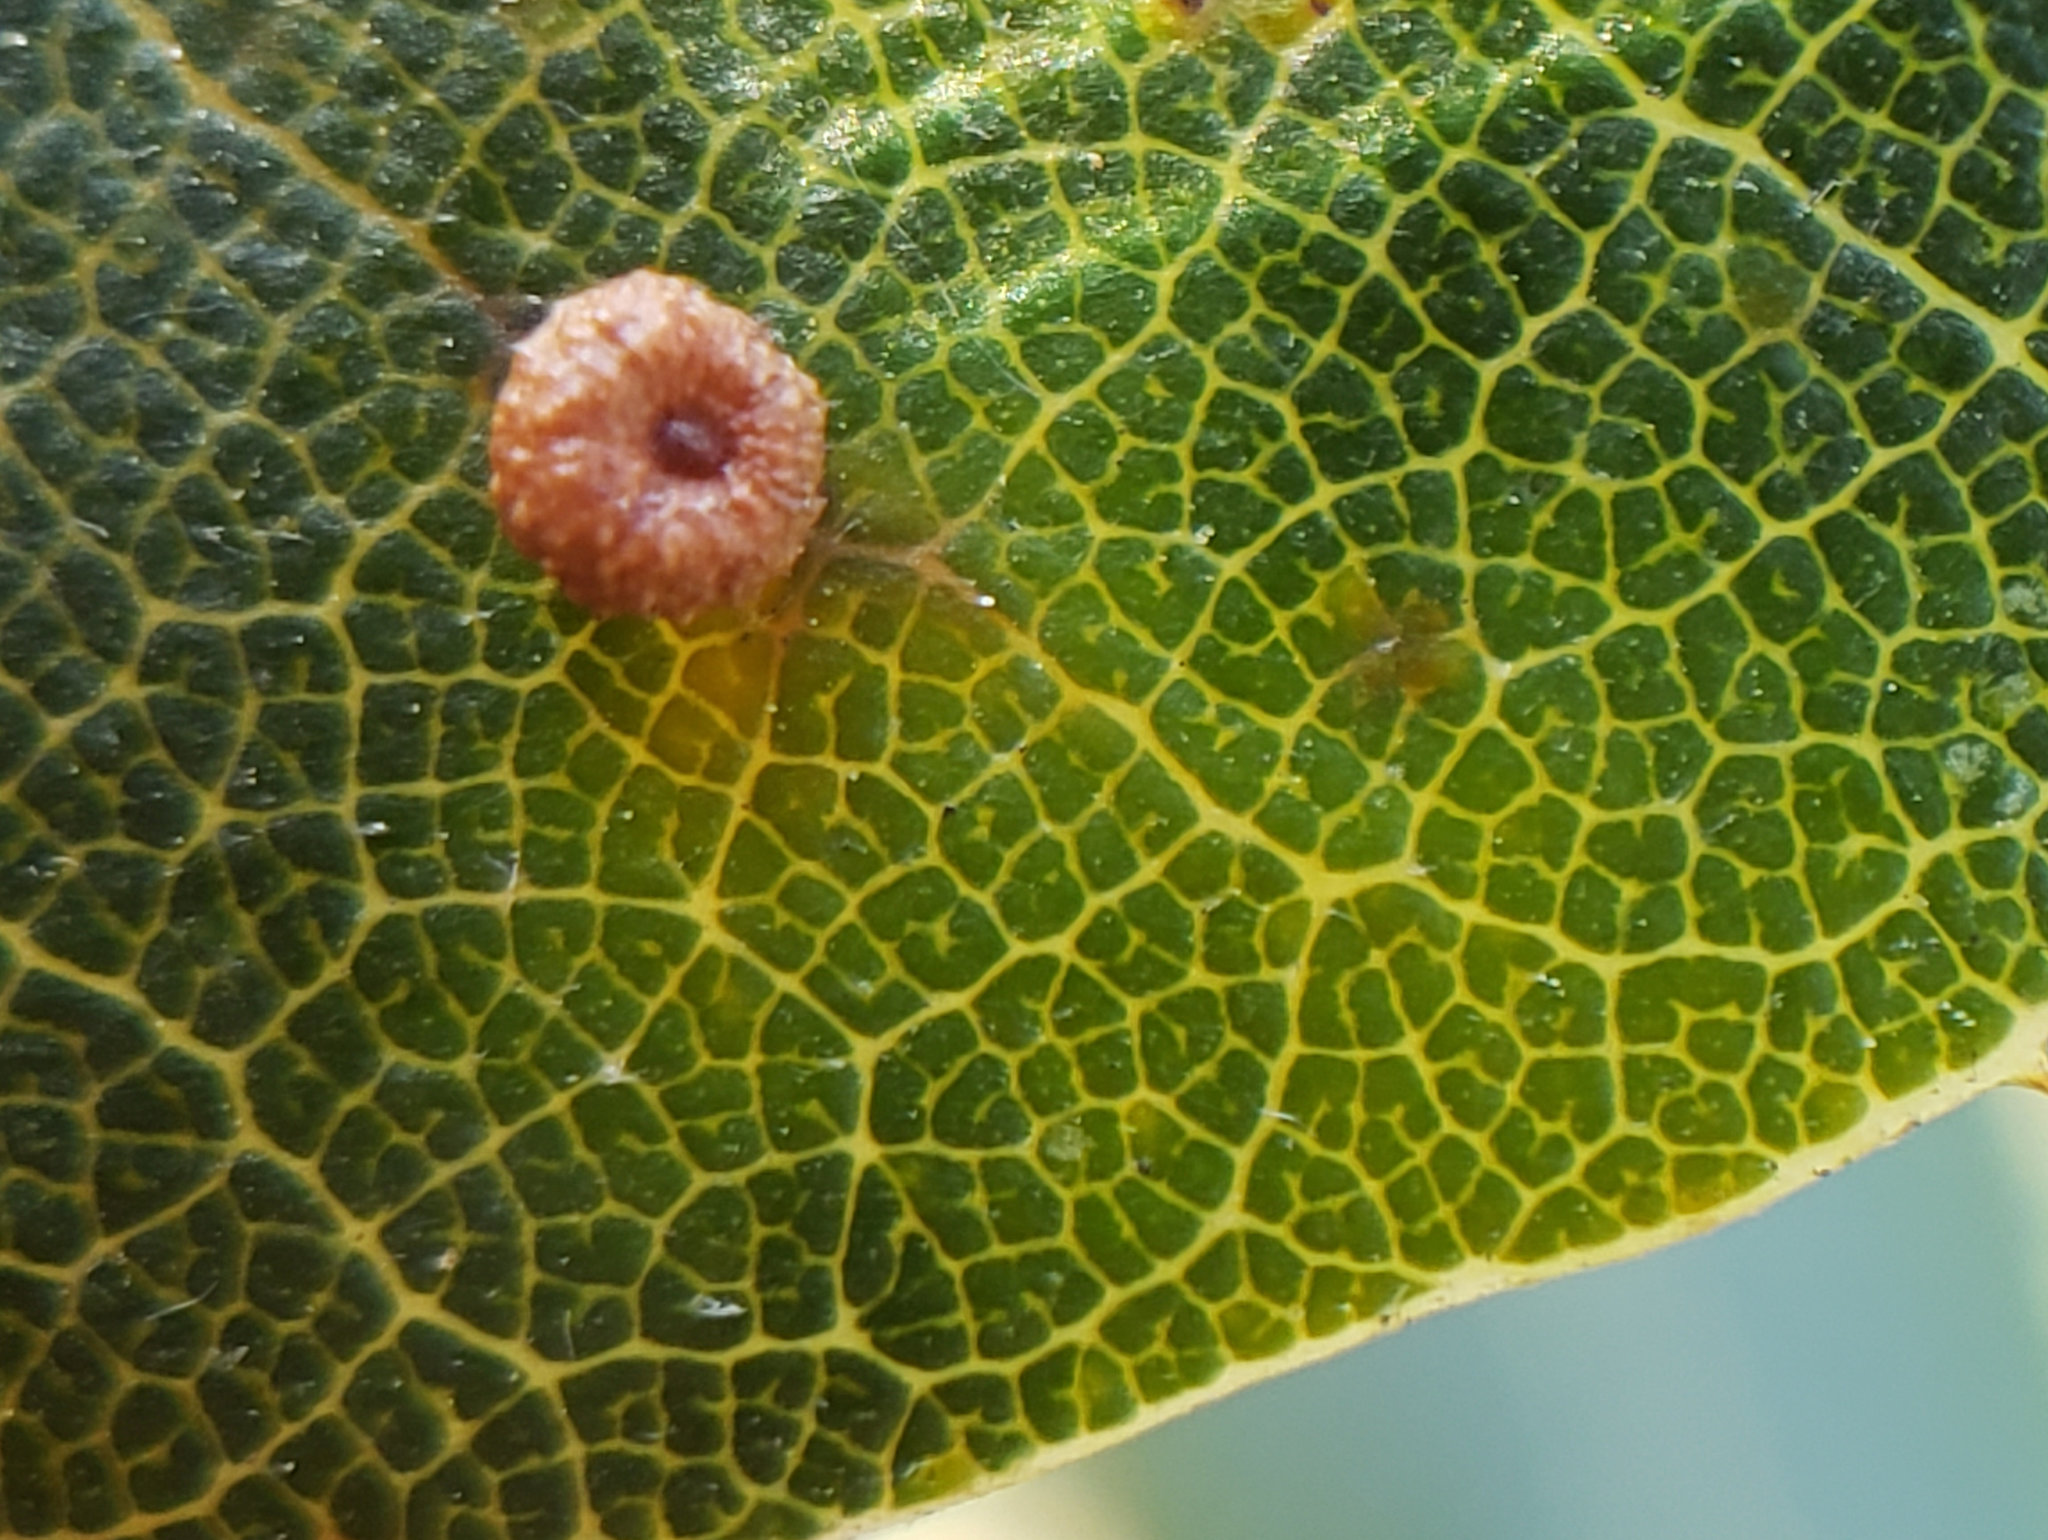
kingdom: Animalia
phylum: Arthropoda
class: Insecta
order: Hymenoptera
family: Cynipidae
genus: Dryocosmus
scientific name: Dryocosmus
